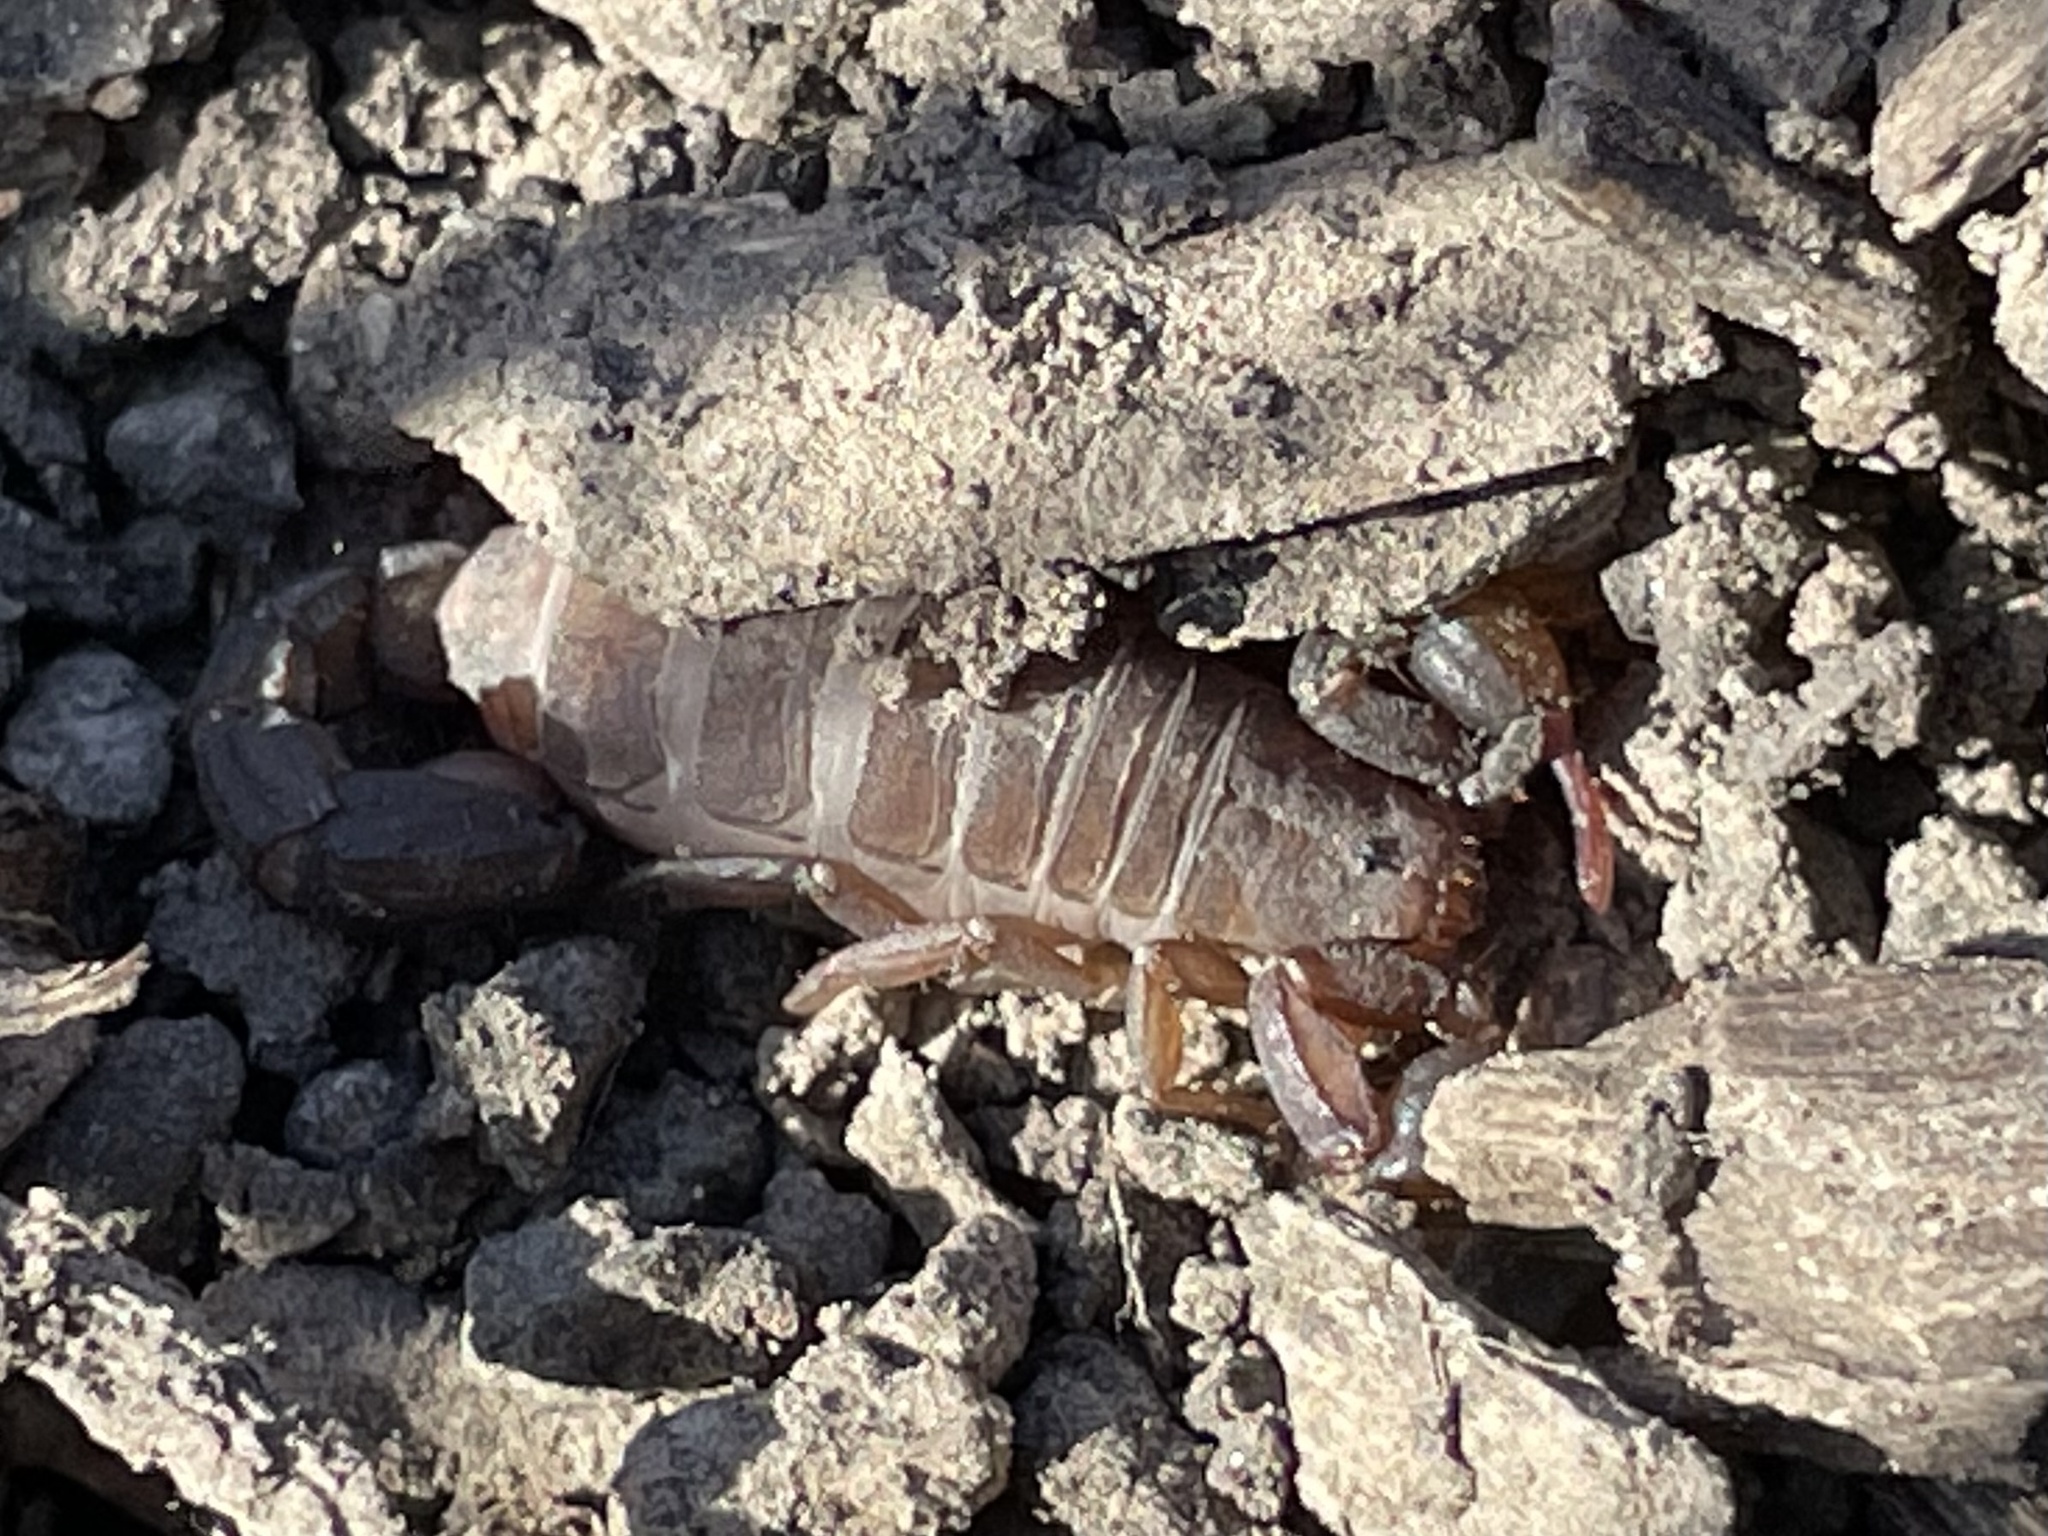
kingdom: Animalia
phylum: Arthropoda
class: Arachnida
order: Scorpiones
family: Vaejovidae
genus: Catalinia
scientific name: Catalinia thompsoni
